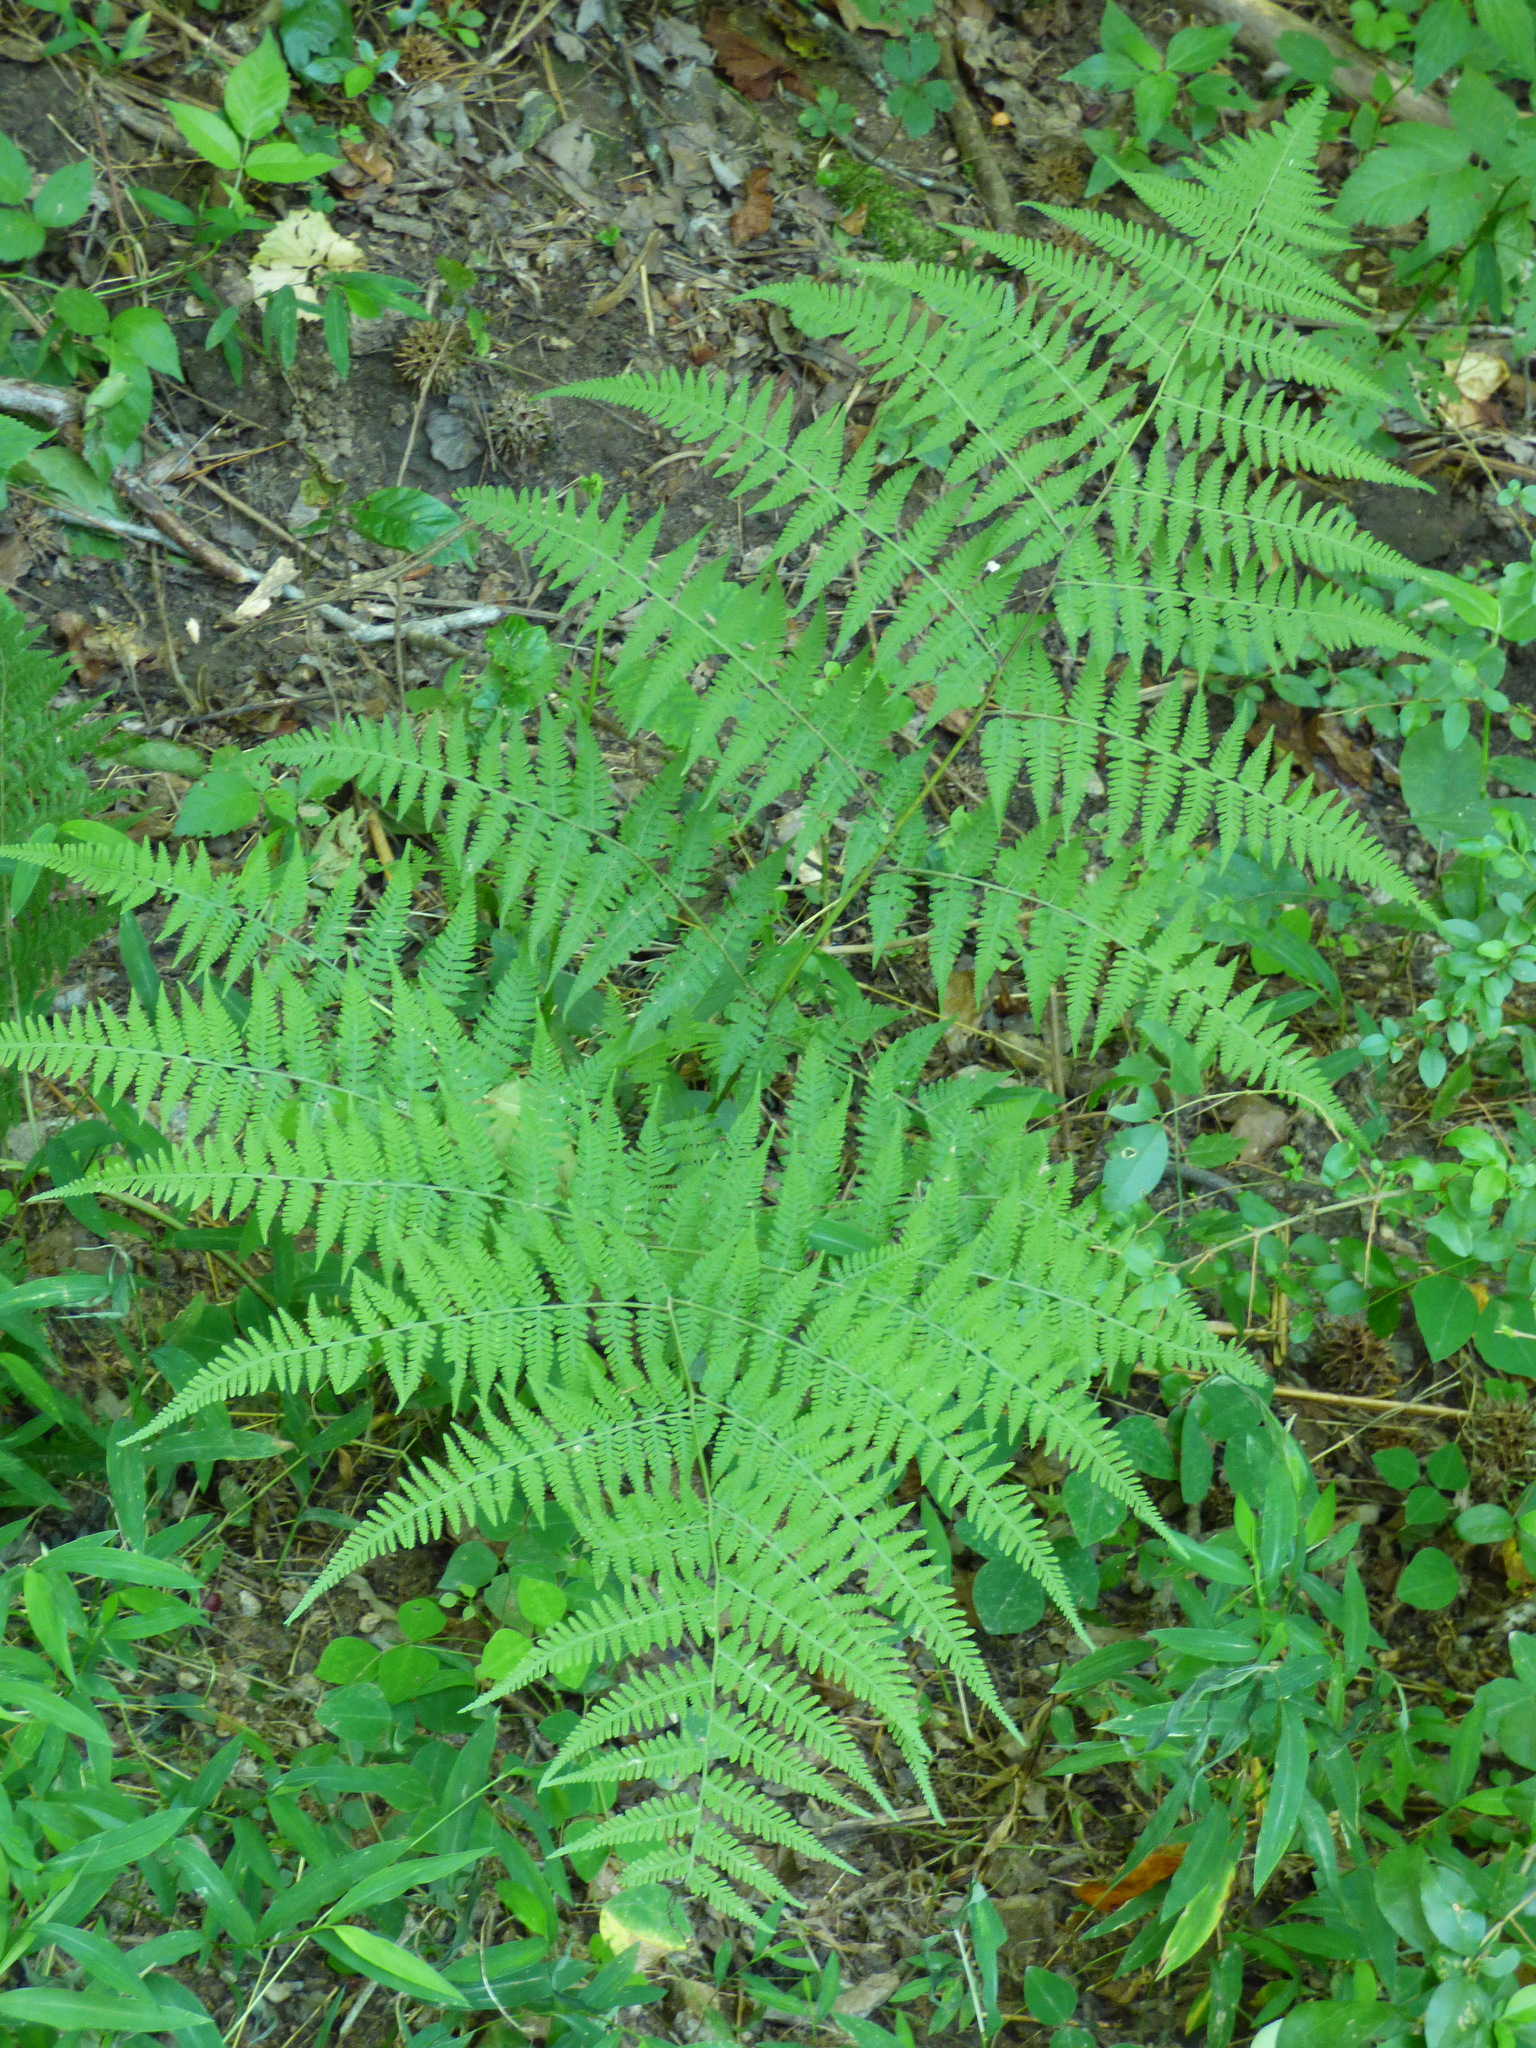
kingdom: Plantae
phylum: Tracheophyta
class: Polypodiopsida
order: Polypodiales
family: Thelypteridaceae
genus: Macrothelypteris
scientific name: Macrothelypteris torresiana
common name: Swordfern
